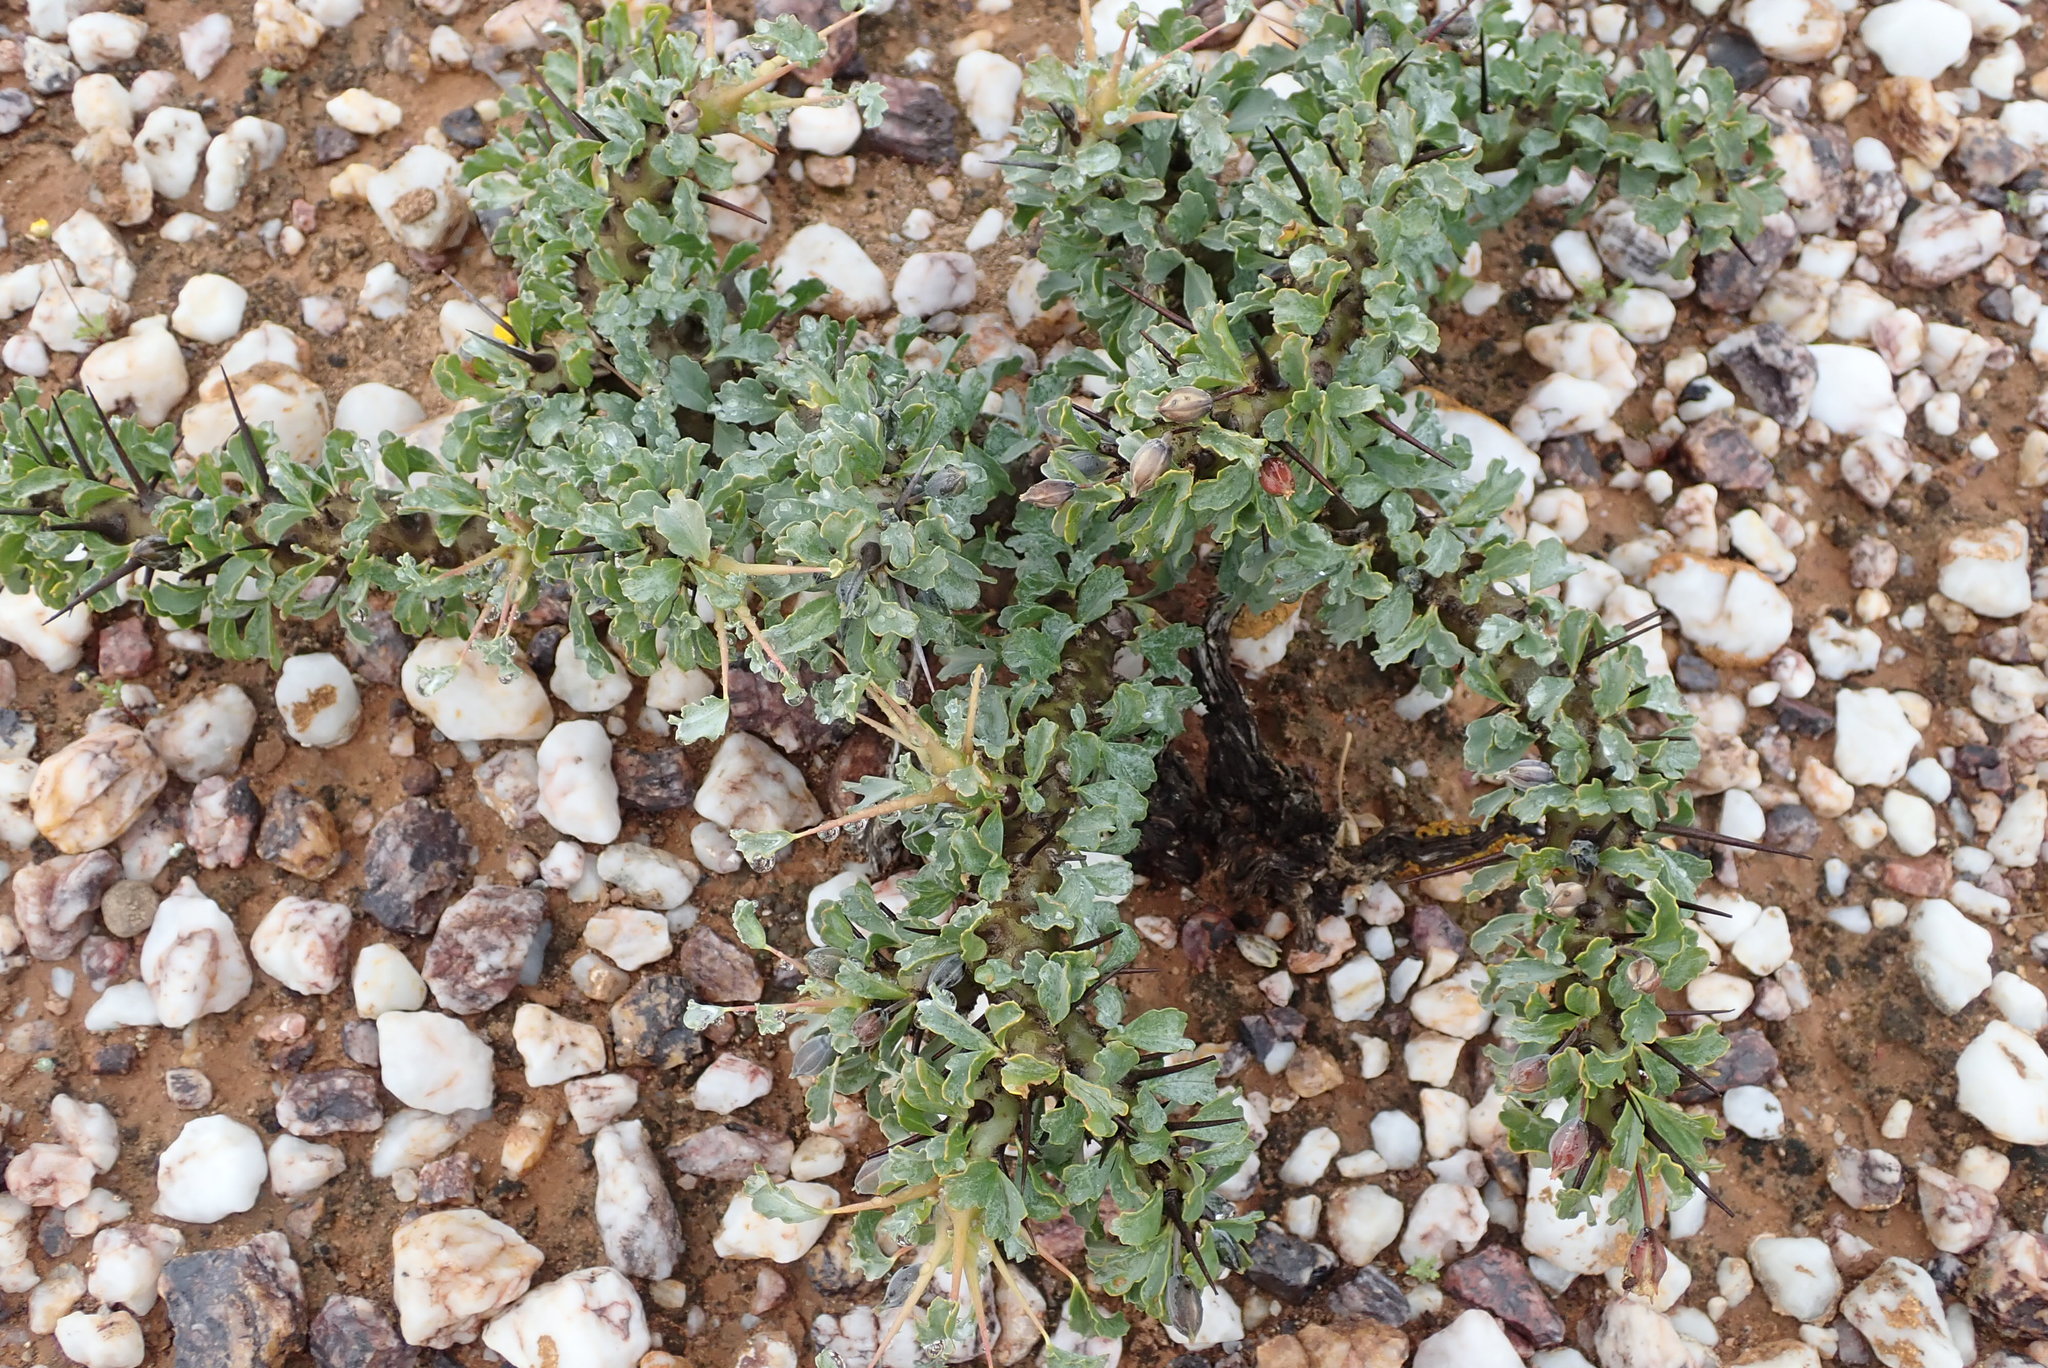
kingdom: Plantae
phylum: Tracheophyta
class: Magnoliopsida
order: Geraniales
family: Geraniaceae
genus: Monsonia
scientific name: Monsonia crassicaulis
